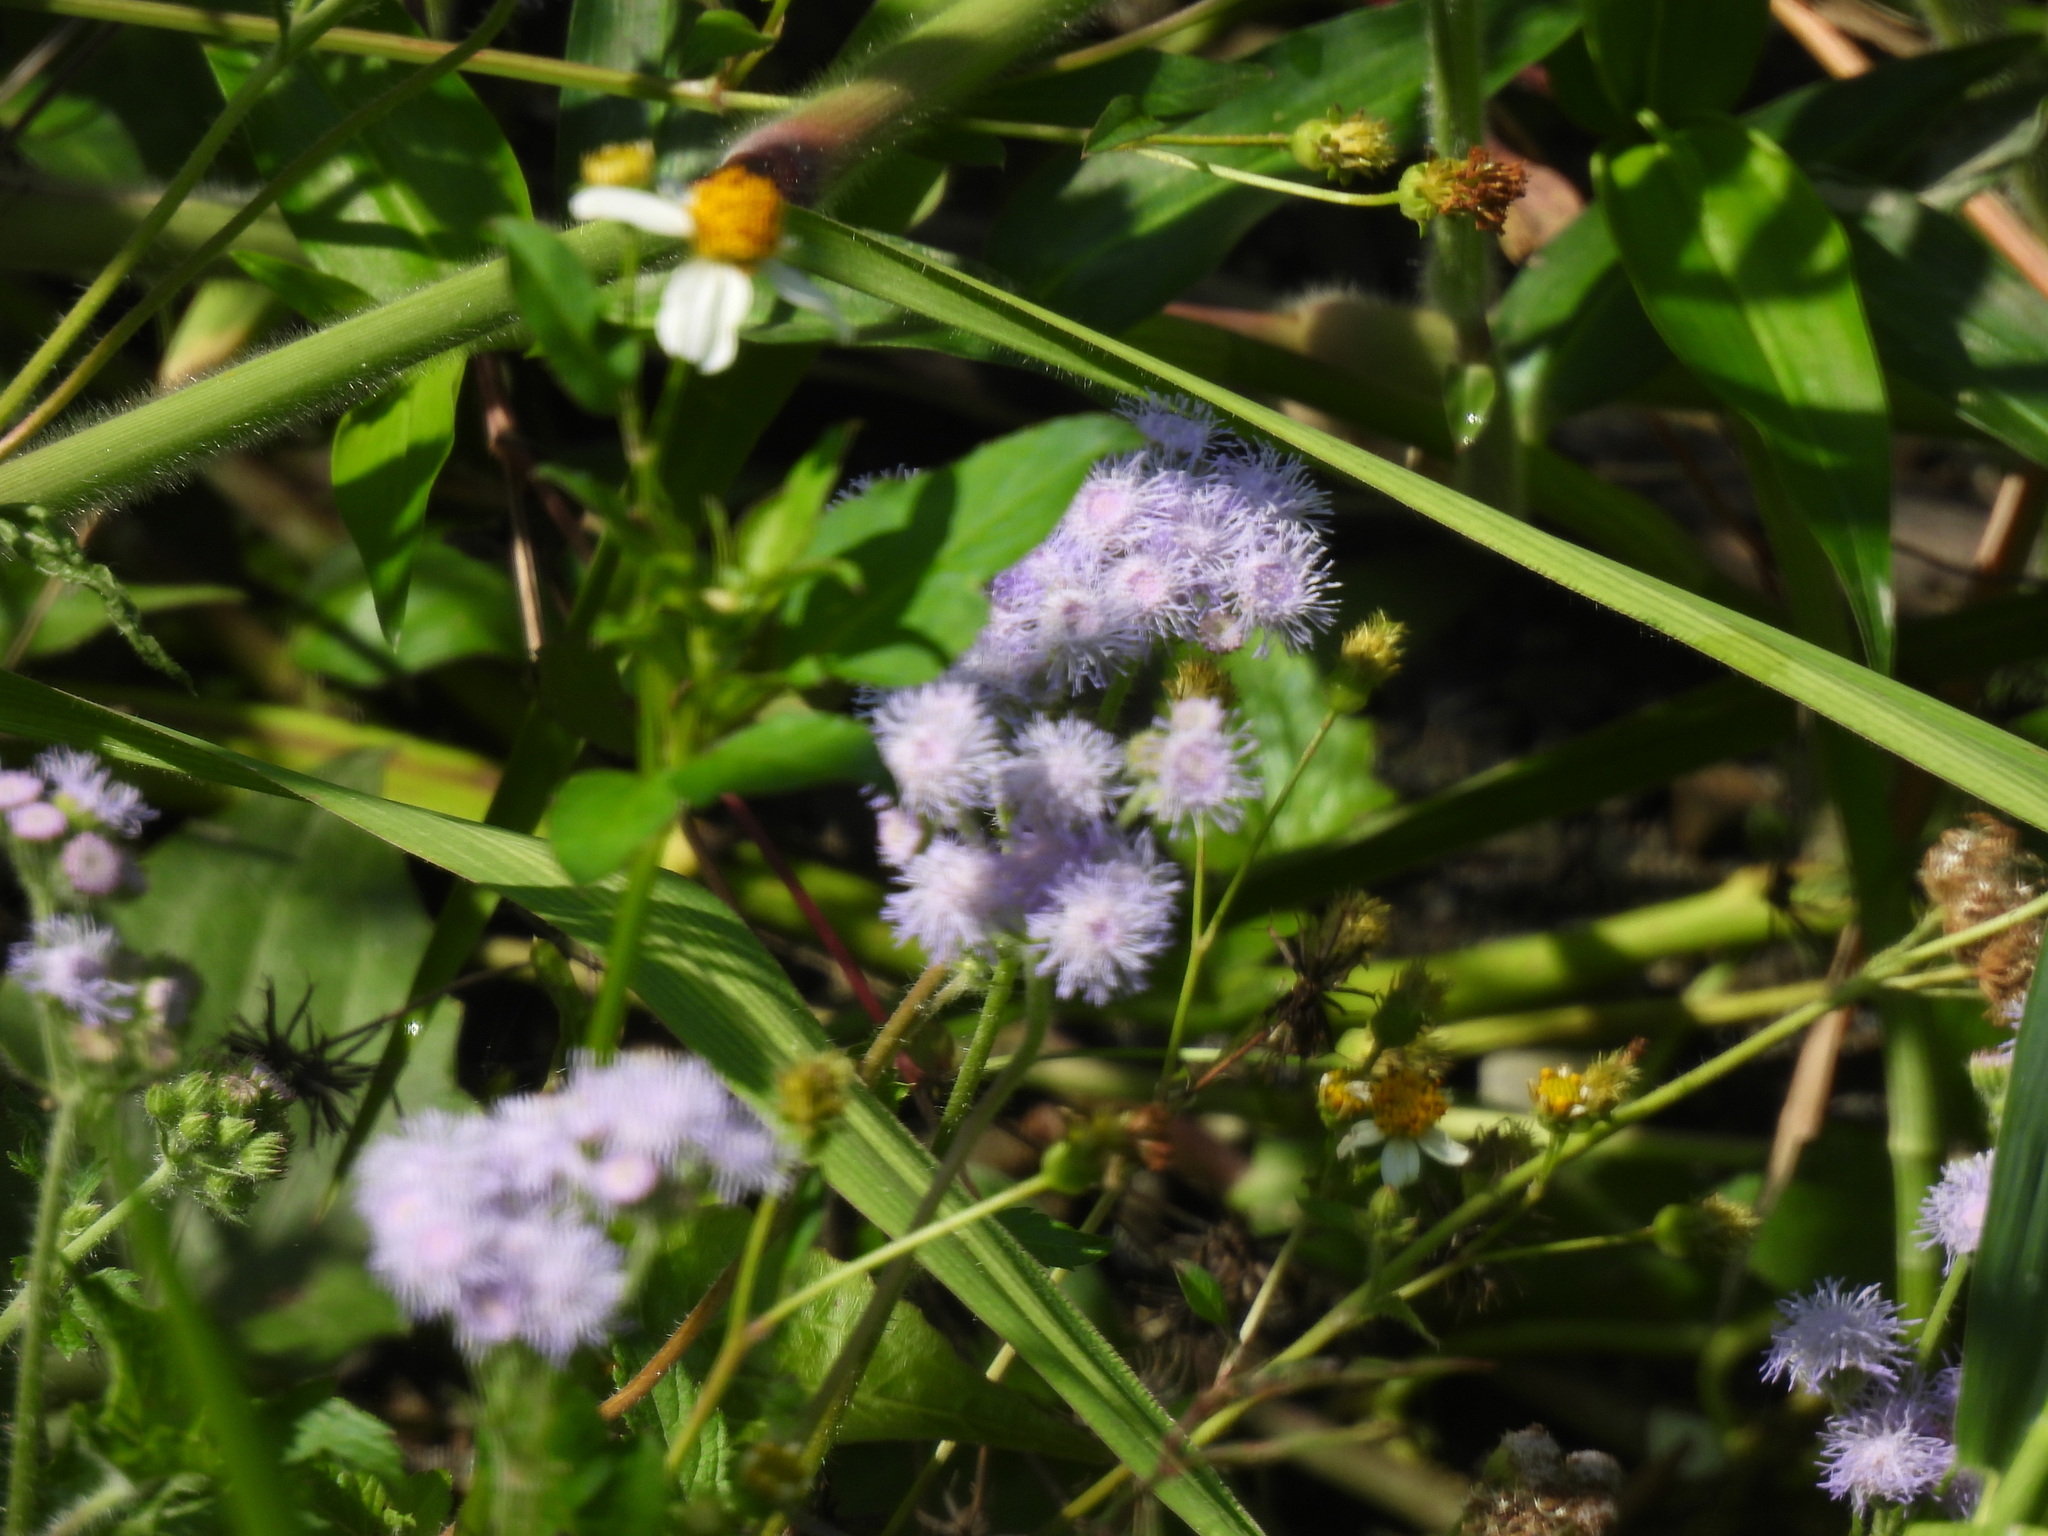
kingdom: Plantae
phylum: Tracheophyta
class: Magnoliopsida
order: Asterales
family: Asteraceae
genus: Ageratum
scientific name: Ageratum houstonianum
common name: Bluemink
